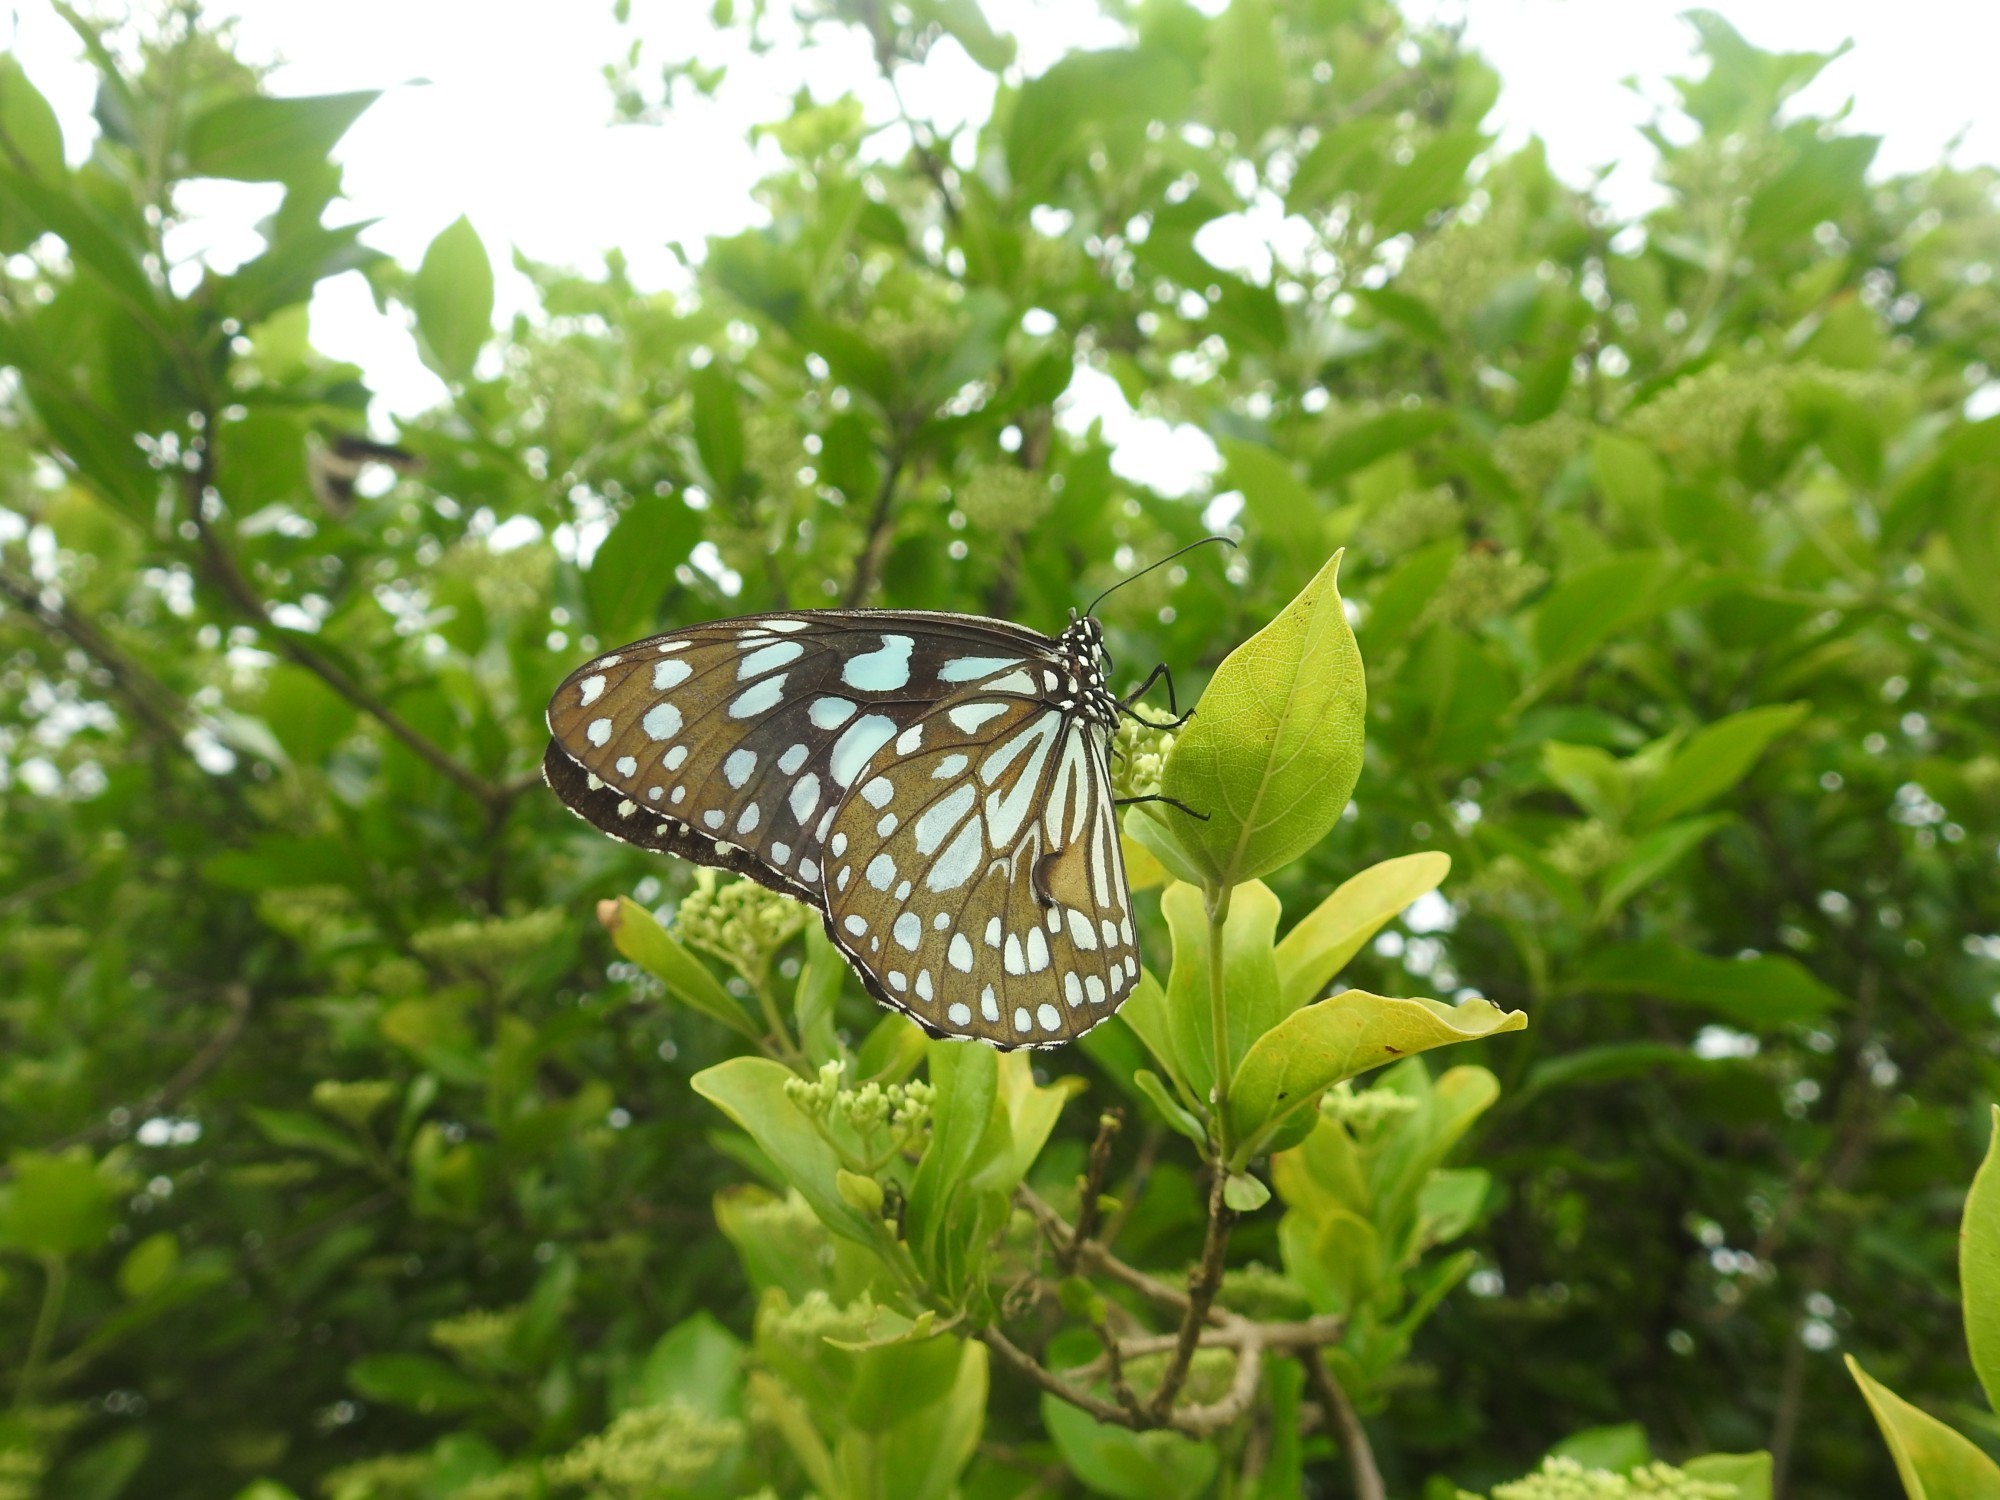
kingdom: Animalia
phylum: Arthropoda
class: Insecta
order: Lepidoptera
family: Nymphalidae
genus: Tirumala
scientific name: Tirumala limniace
